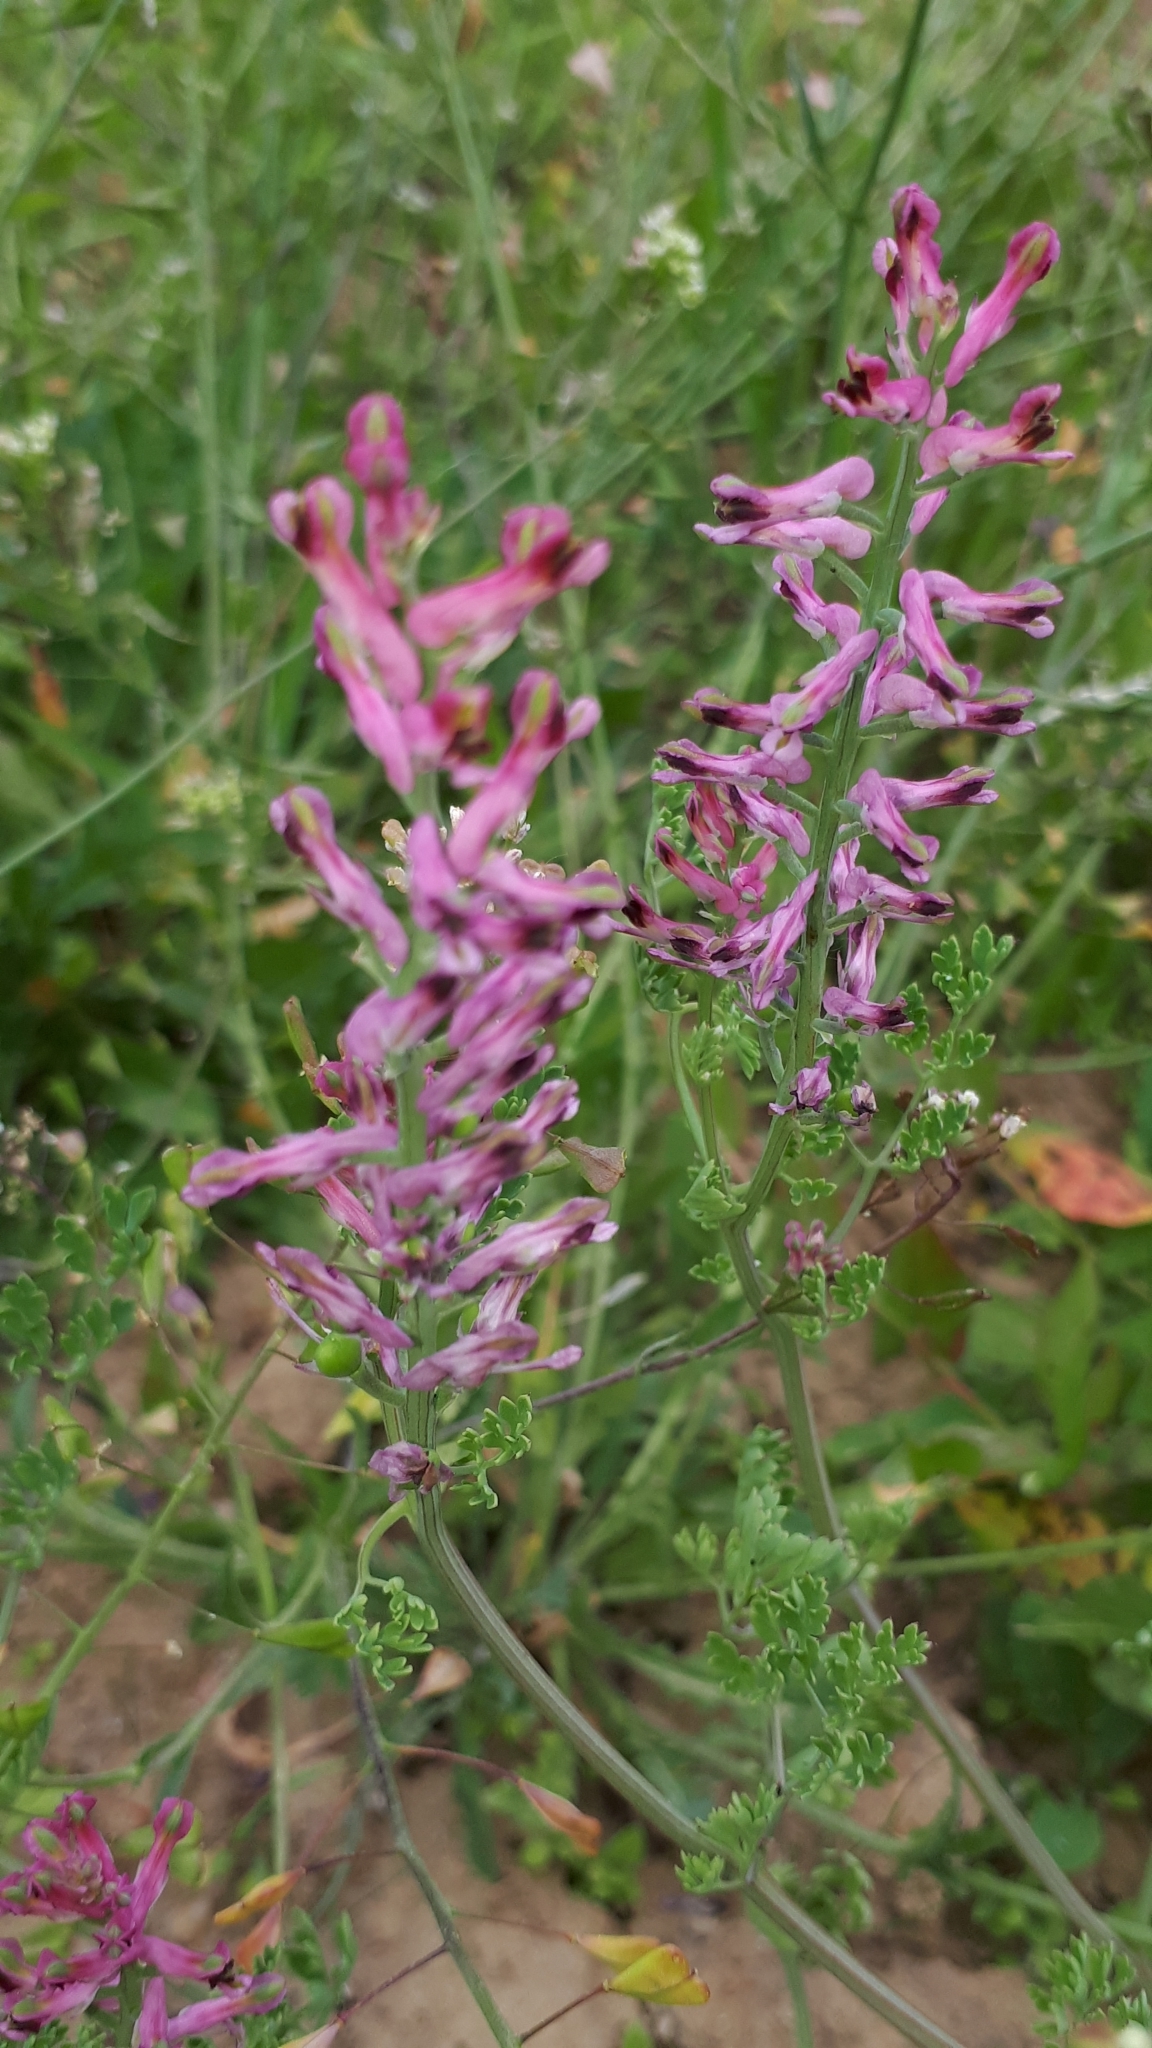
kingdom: Plantae
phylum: Tracheophyta
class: Magnoliopsida
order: Ranunculales
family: Papaveraceae
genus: Fumaria
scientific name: Fumaria officinalis
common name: Common fumitory
